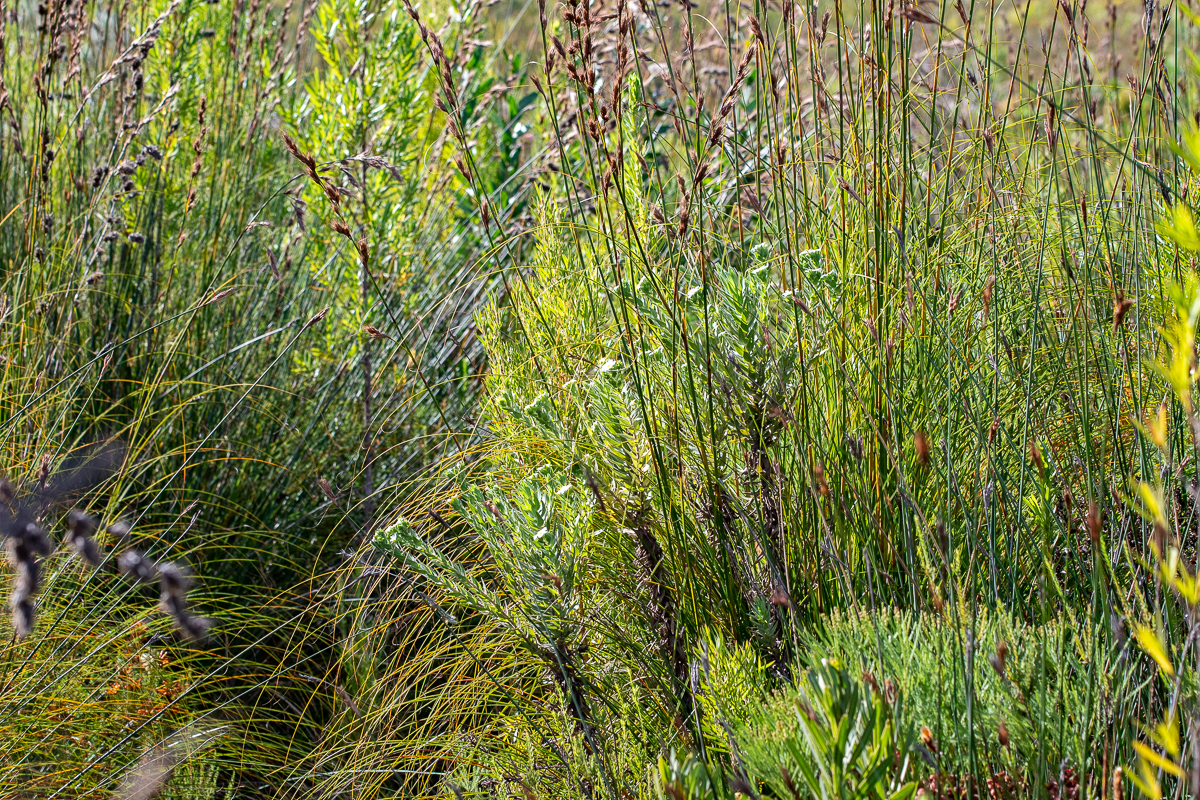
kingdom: Plantae
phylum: Tracheophyta
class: Magnoliopsida
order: Asterales
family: Asteraceae
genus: Osmitopsis
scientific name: Osmitopsis asteriscoides
